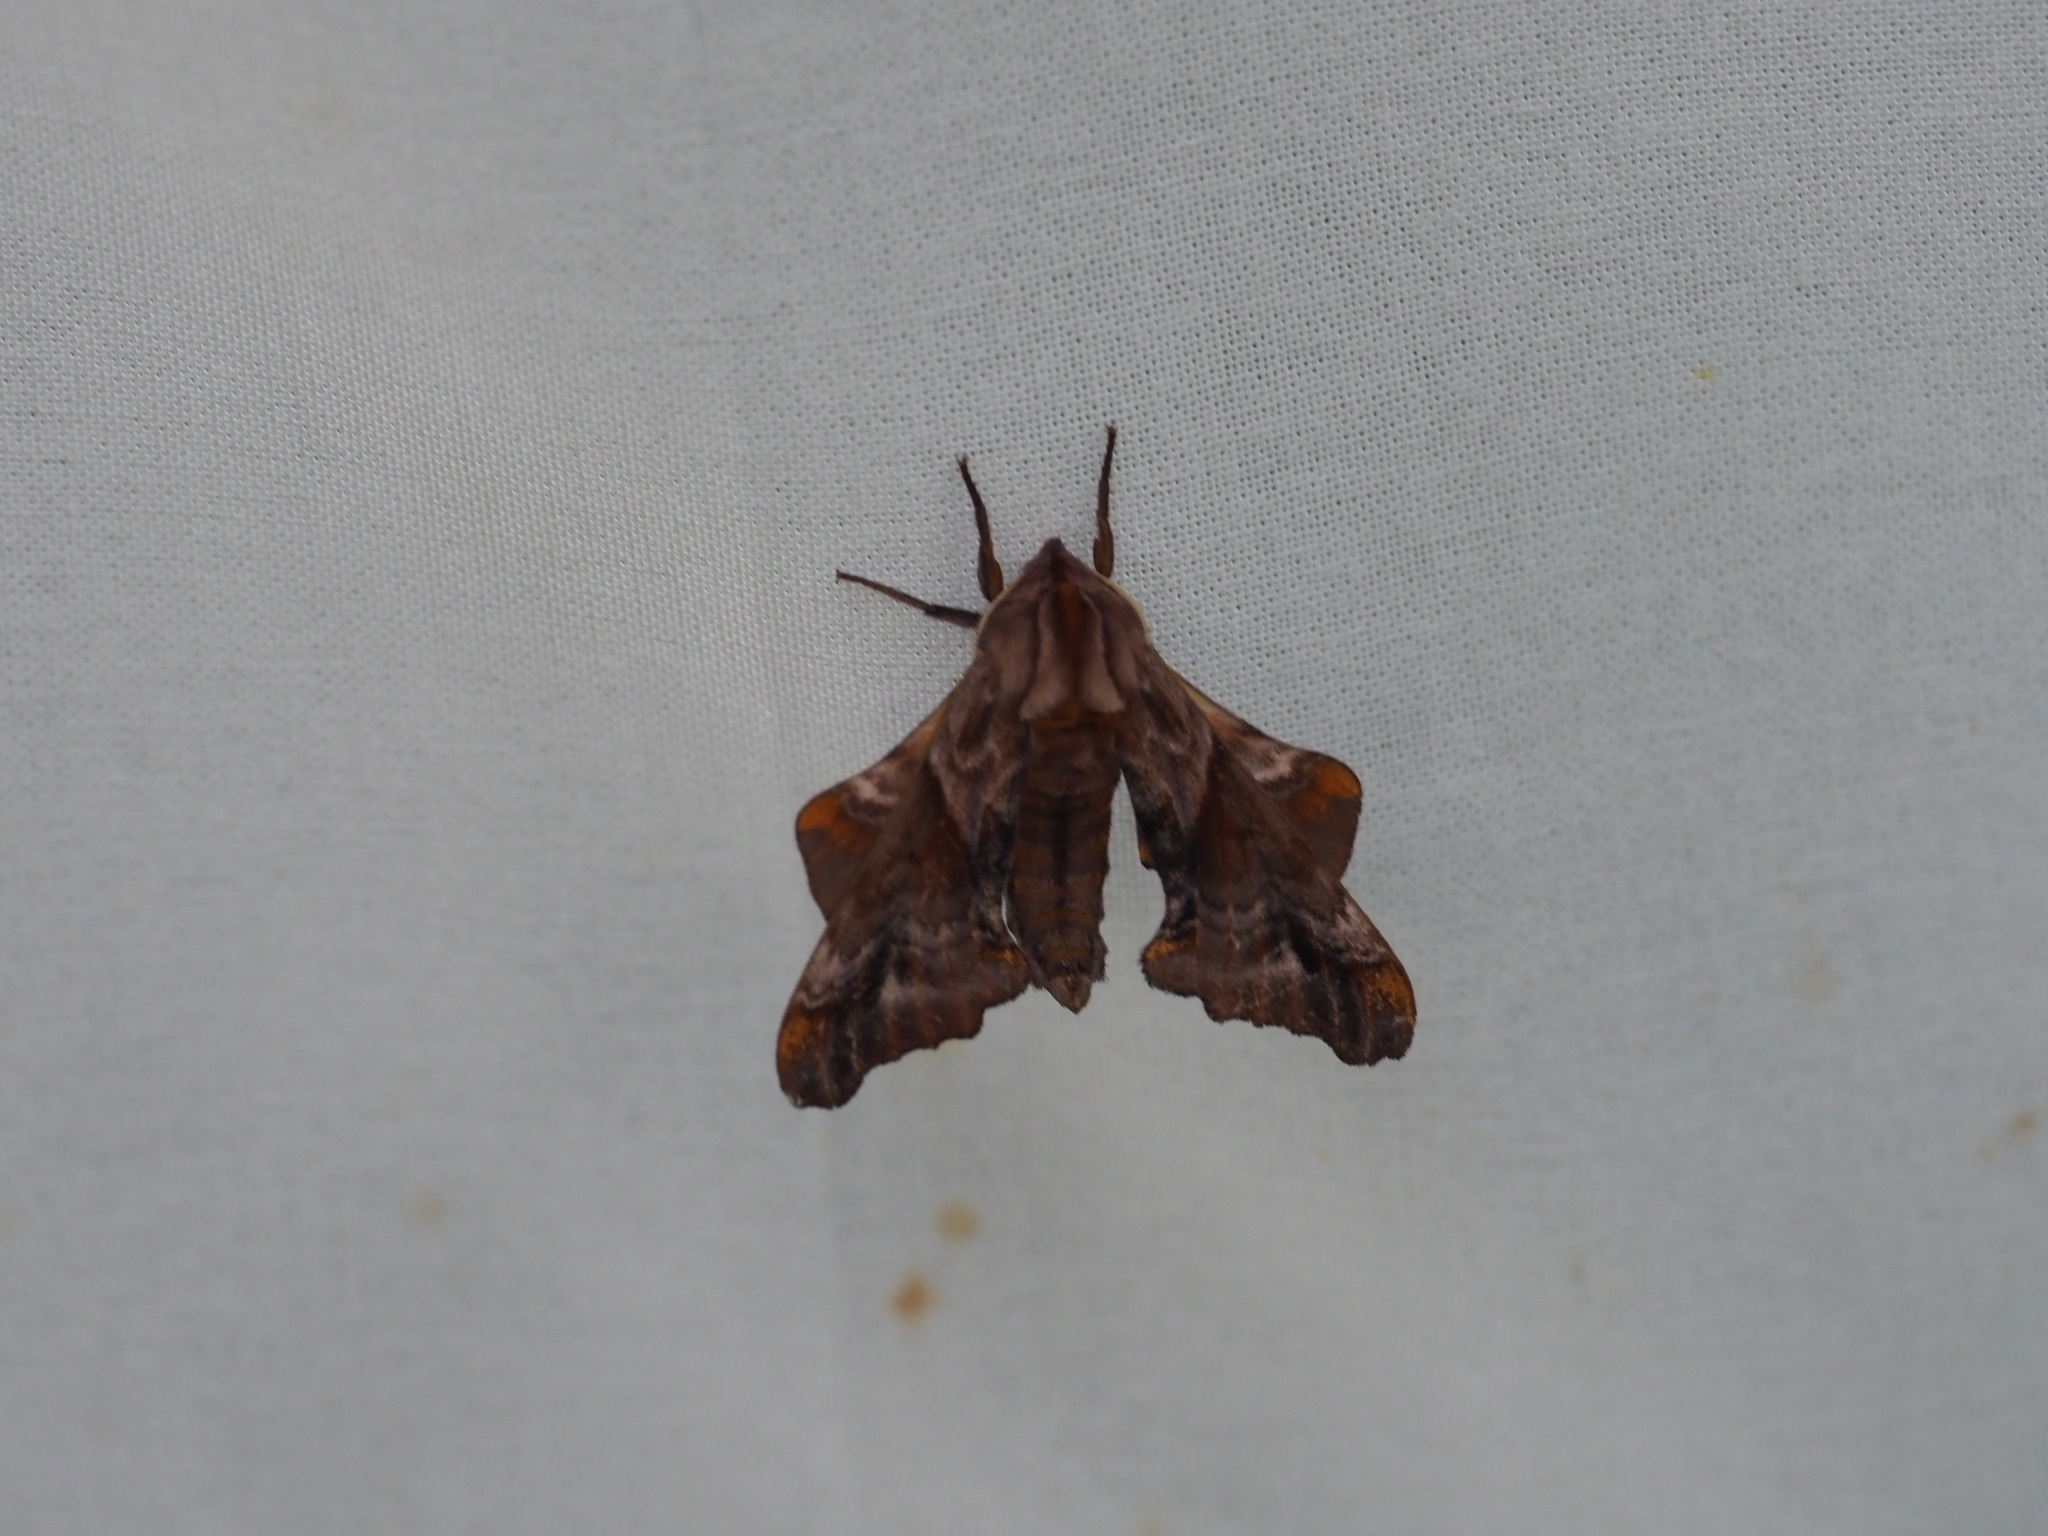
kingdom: Animalia
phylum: Arthropoda
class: Insecta
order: Lepidoptera
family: Sphingidae
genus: Paonias
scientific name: Paonias myops
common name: Small-eyed sphinx
